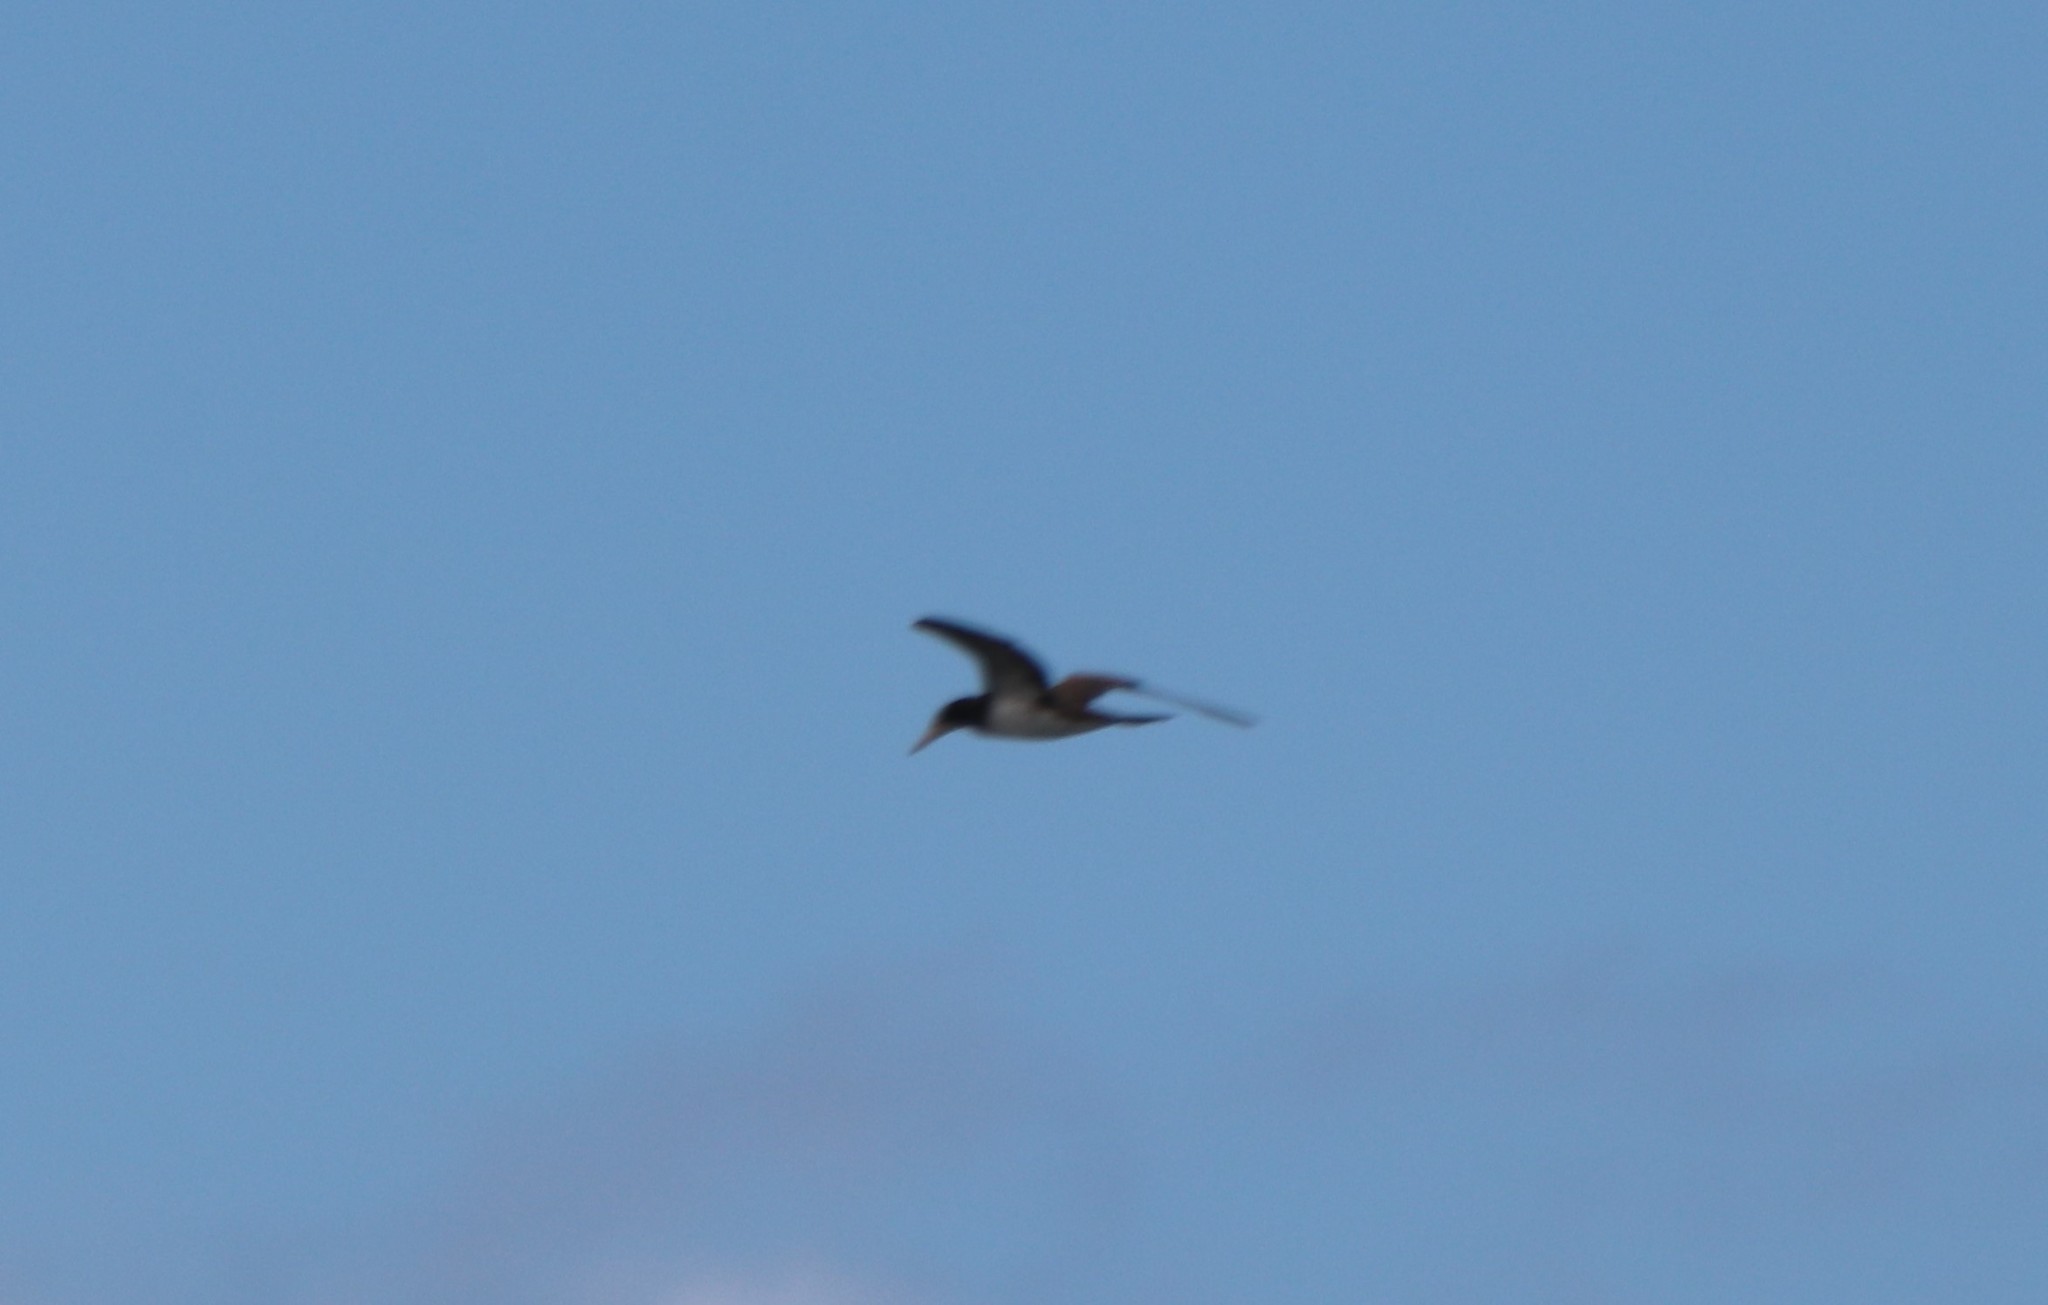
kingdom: Animalia
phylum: Chordata
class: Aves
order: Suliformes
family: Sulidae
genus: Sula
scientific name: Sula leucogaster
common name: Brown booby
